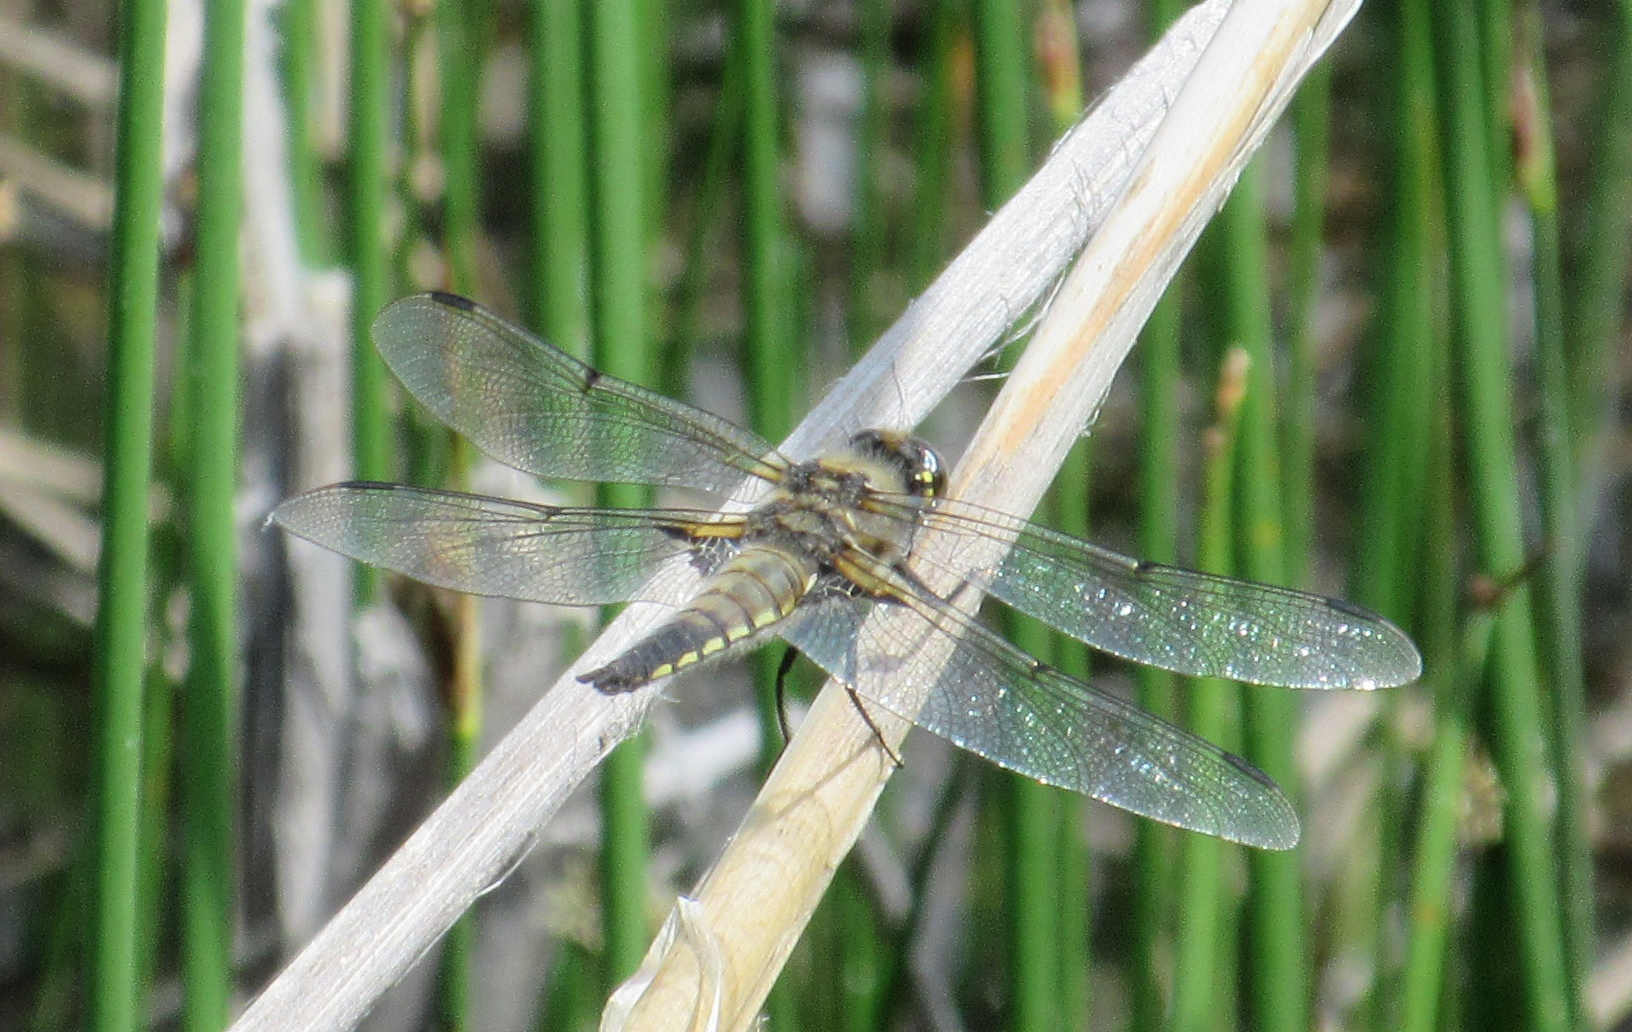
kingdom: Animalia
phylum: Arthropoda
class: Insecta
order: Odonata
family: Libellulidae
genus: Libellula
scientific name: Libellula quadrimaculata
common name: Four-spotted chaser
